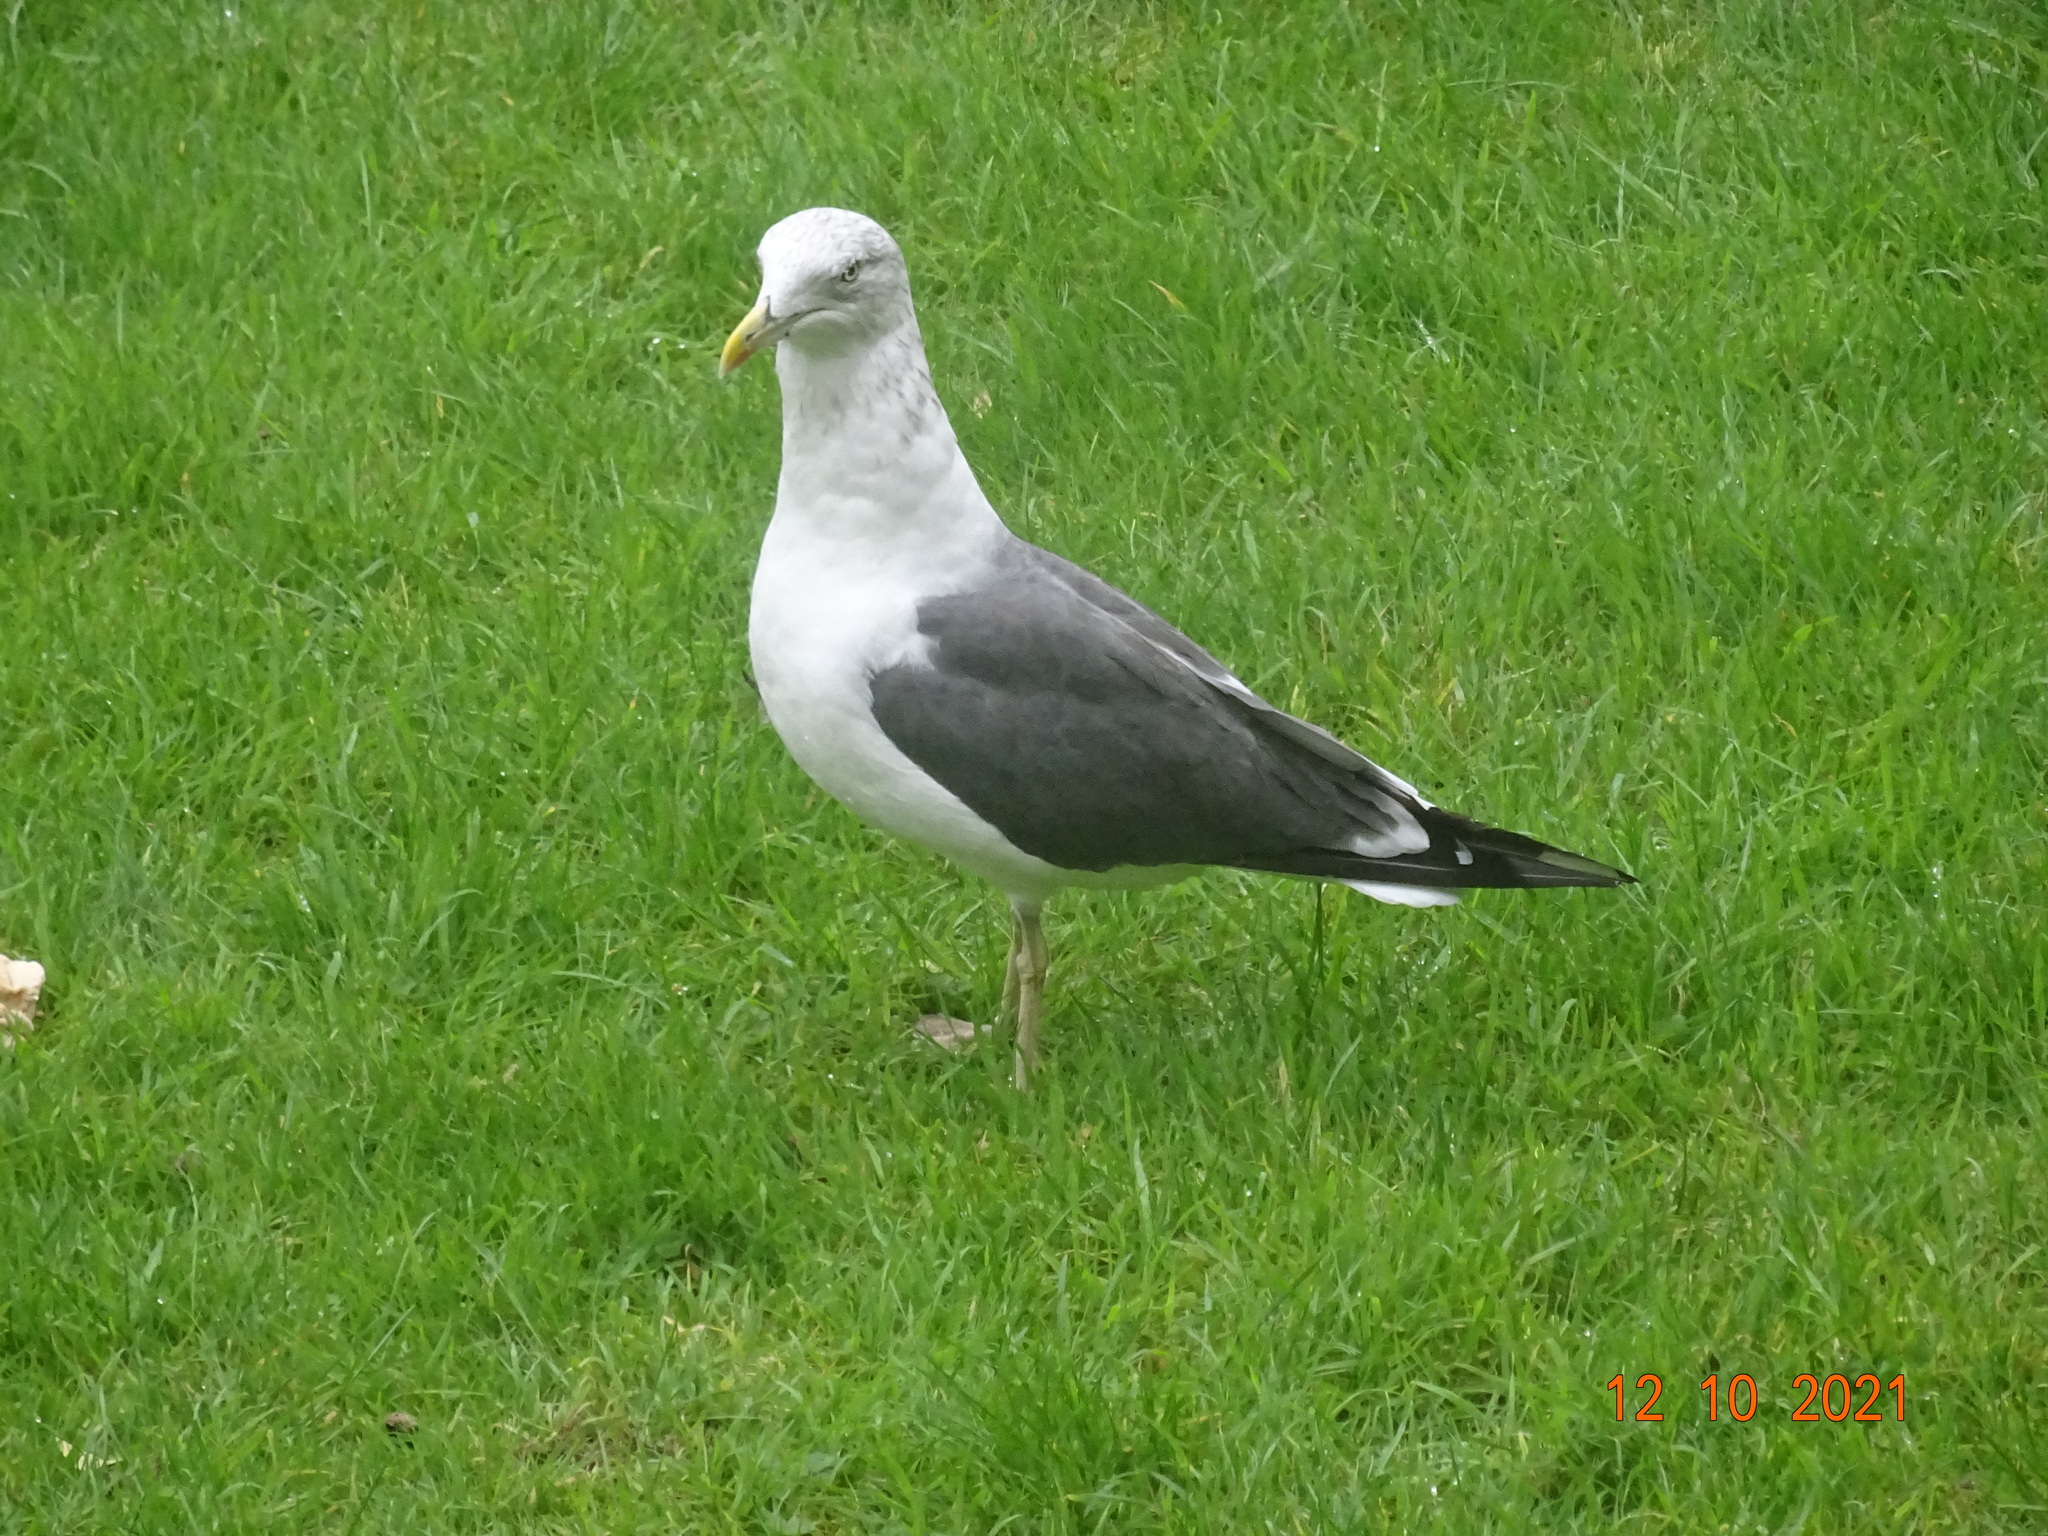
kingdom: Animalia
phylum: Chordata
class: Aves
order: Charadriiformes
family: Laridae
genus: Larus
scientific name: Larus fuscus
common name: Lesser black-backed gull
